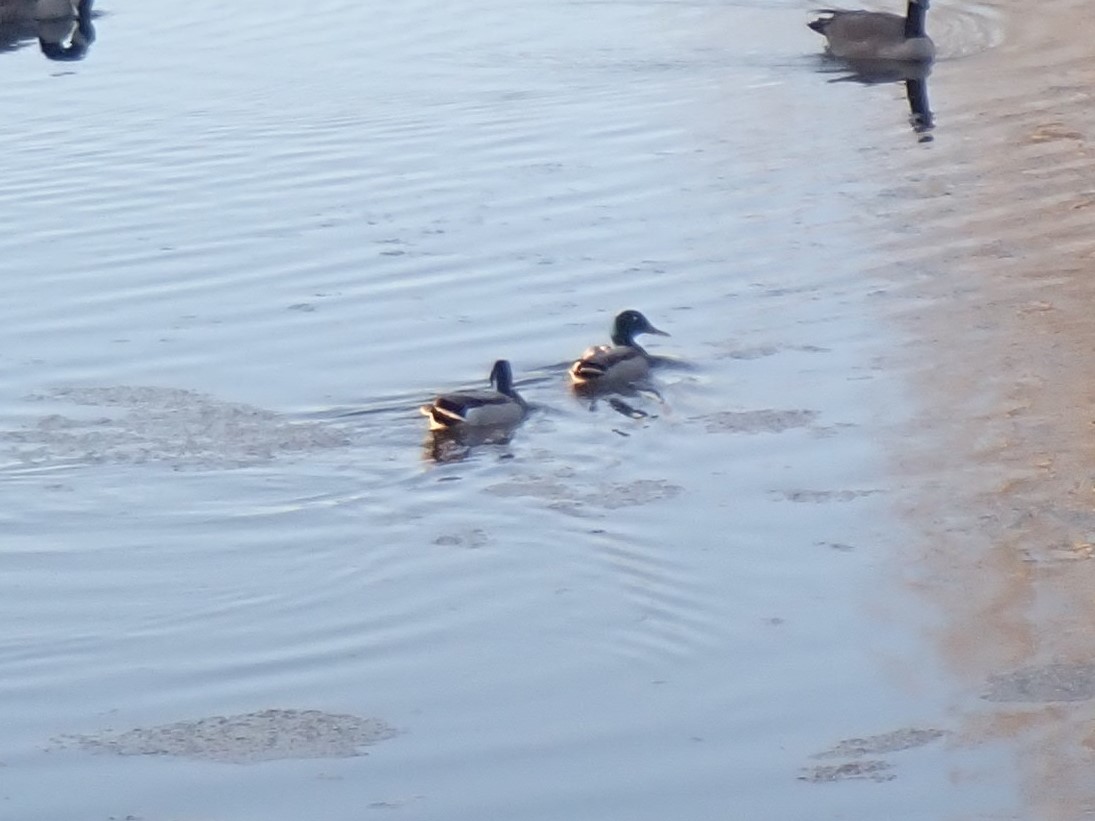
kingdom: Animalia
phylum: Chordata
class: Aves
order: Anseriformes
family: Anatidae
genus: Anas
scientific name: Anas platyrhynchos
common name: Mallard
